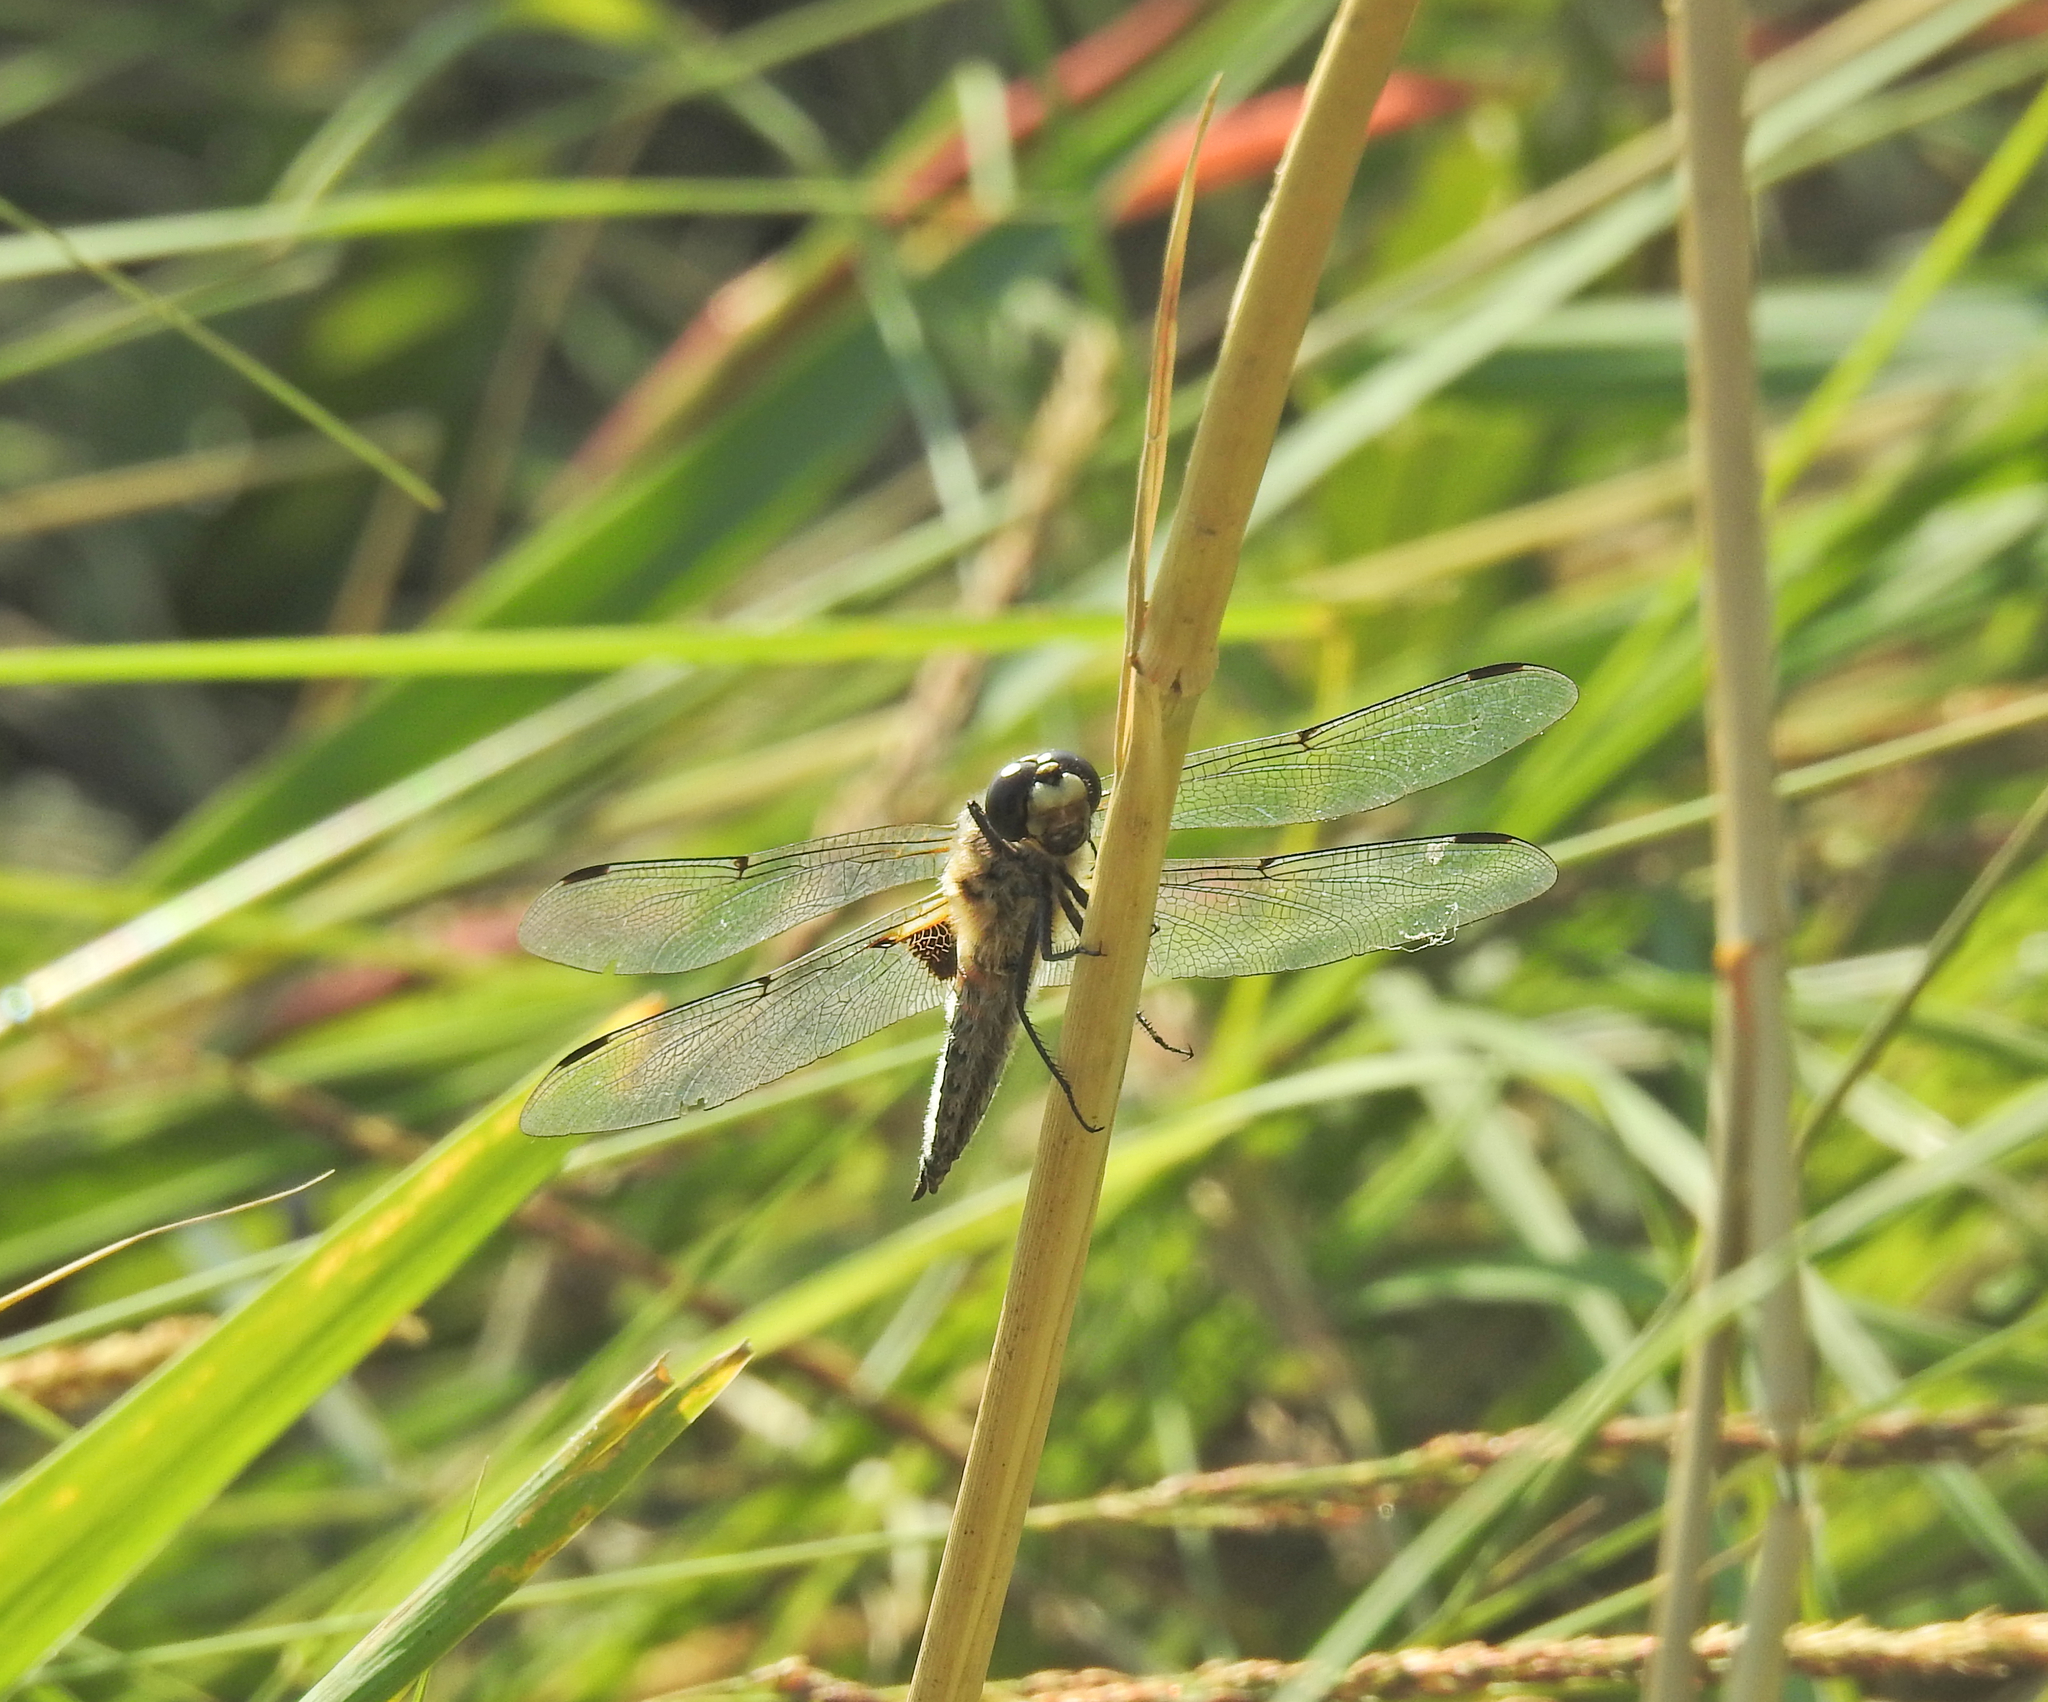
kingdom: Animalia
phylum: Arthropoda
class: Insecta
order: Odonata
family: Libellulidae
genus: Libellula
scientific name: Libellula quadrimaculata
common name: Four-spotted chaser
